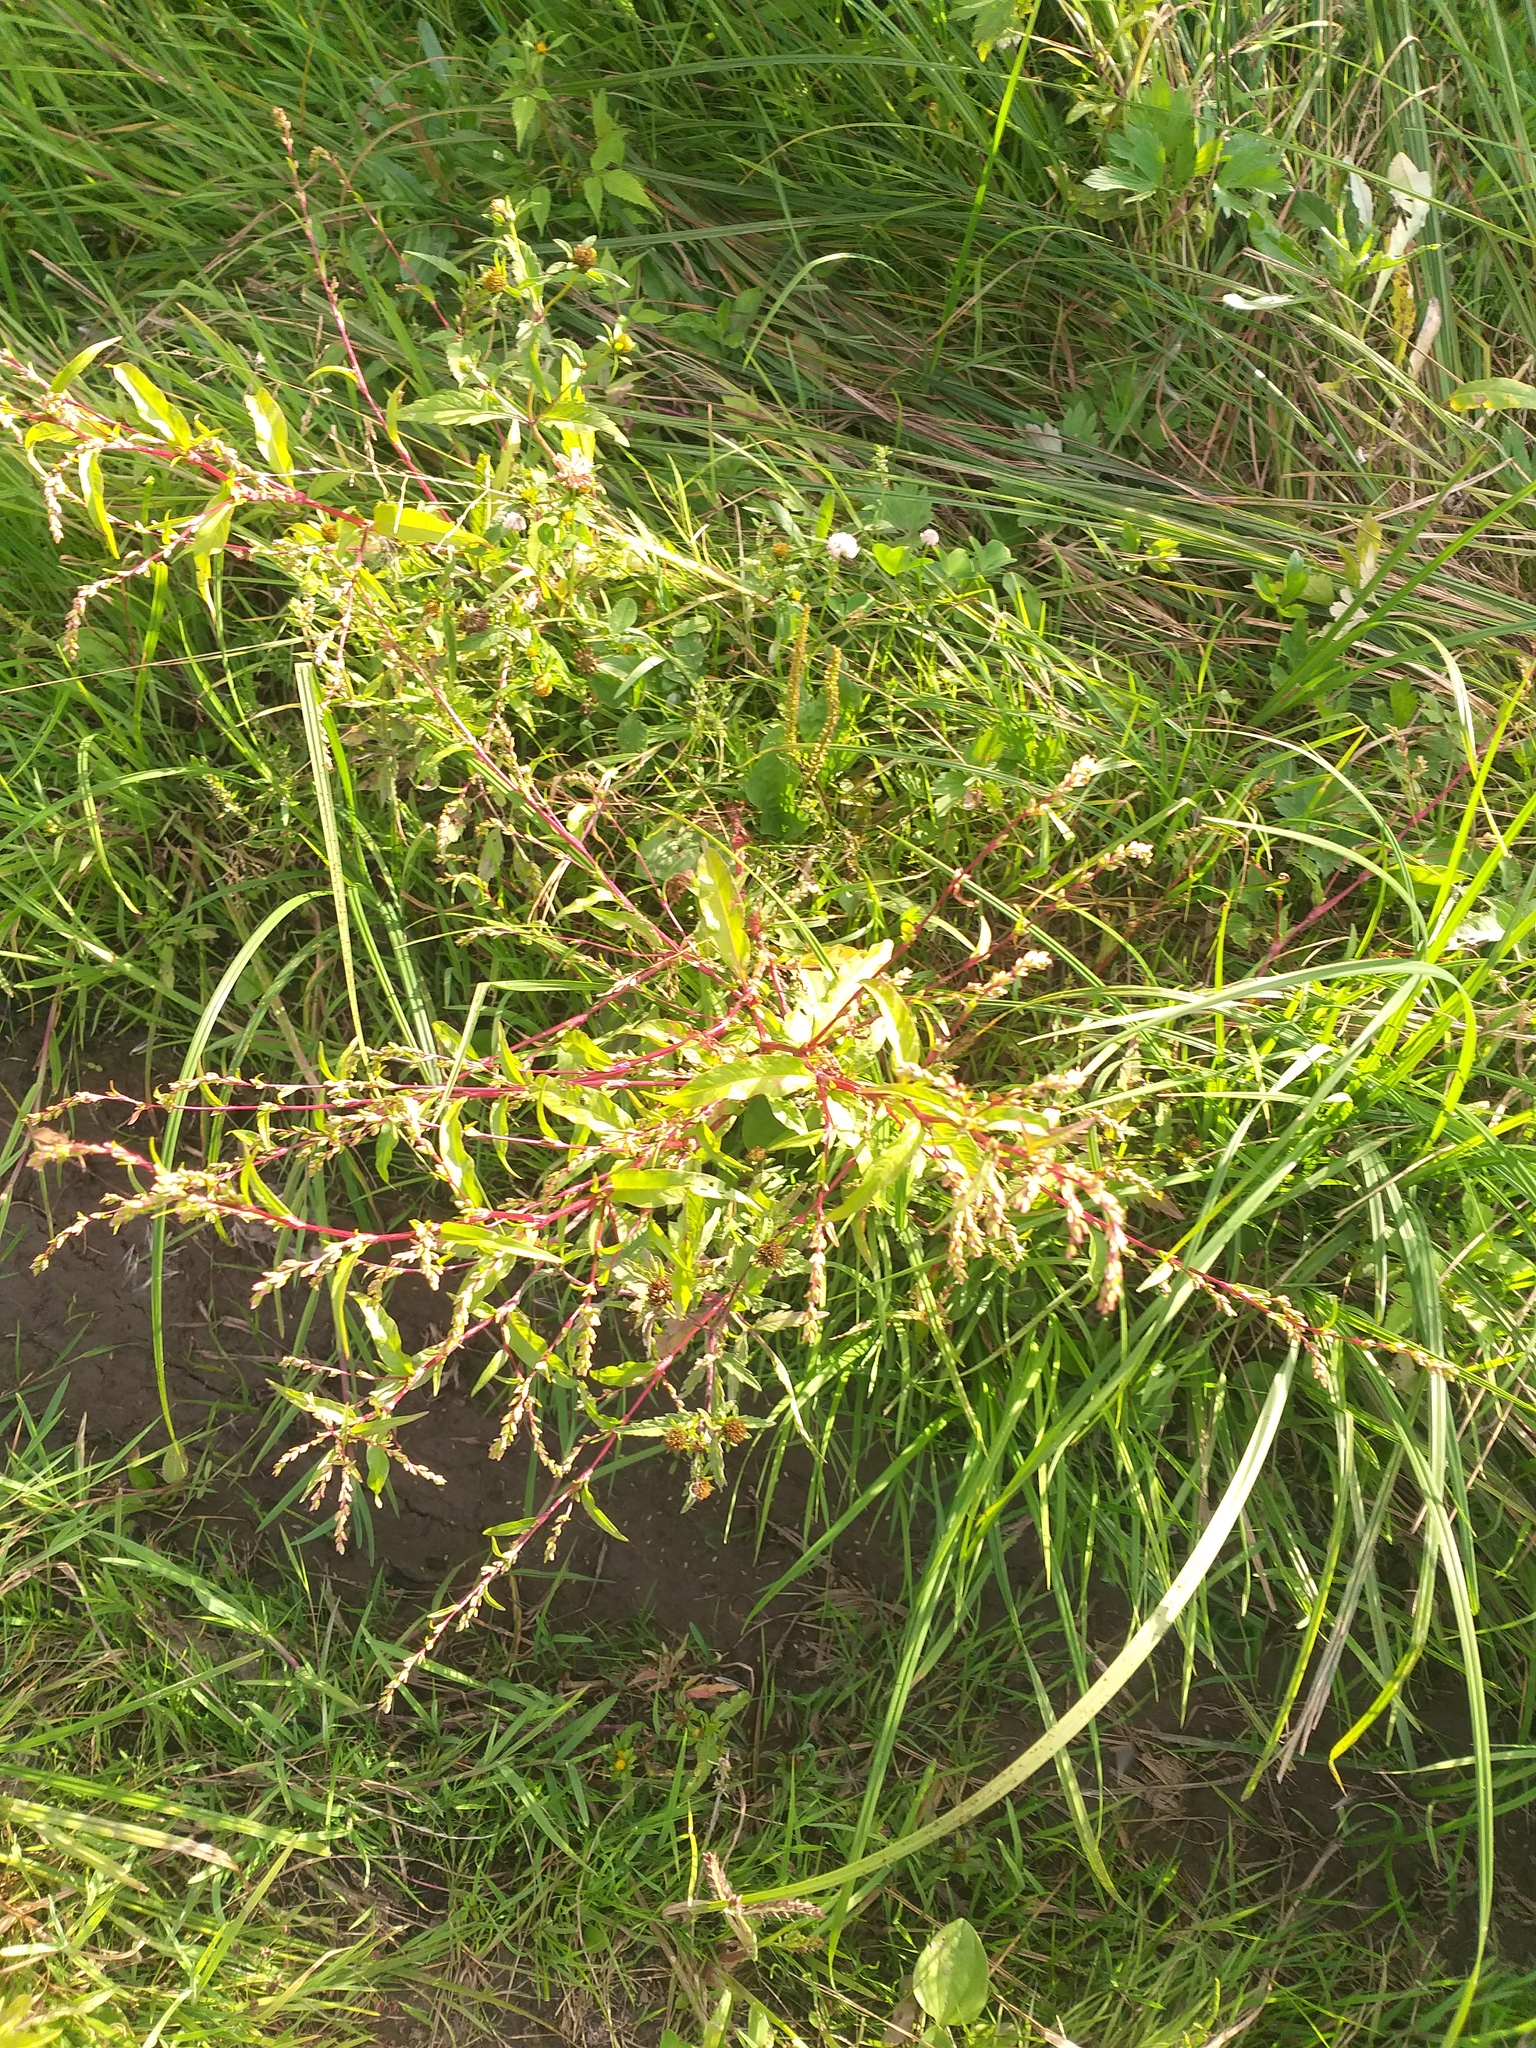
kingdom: Plantae
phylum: Tracheophyta
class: Magnoliopsida
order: Caryophyllales
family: Polygonaceae
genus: Persicaria
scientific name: Persicaria hydropiper
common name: Water-pepper
